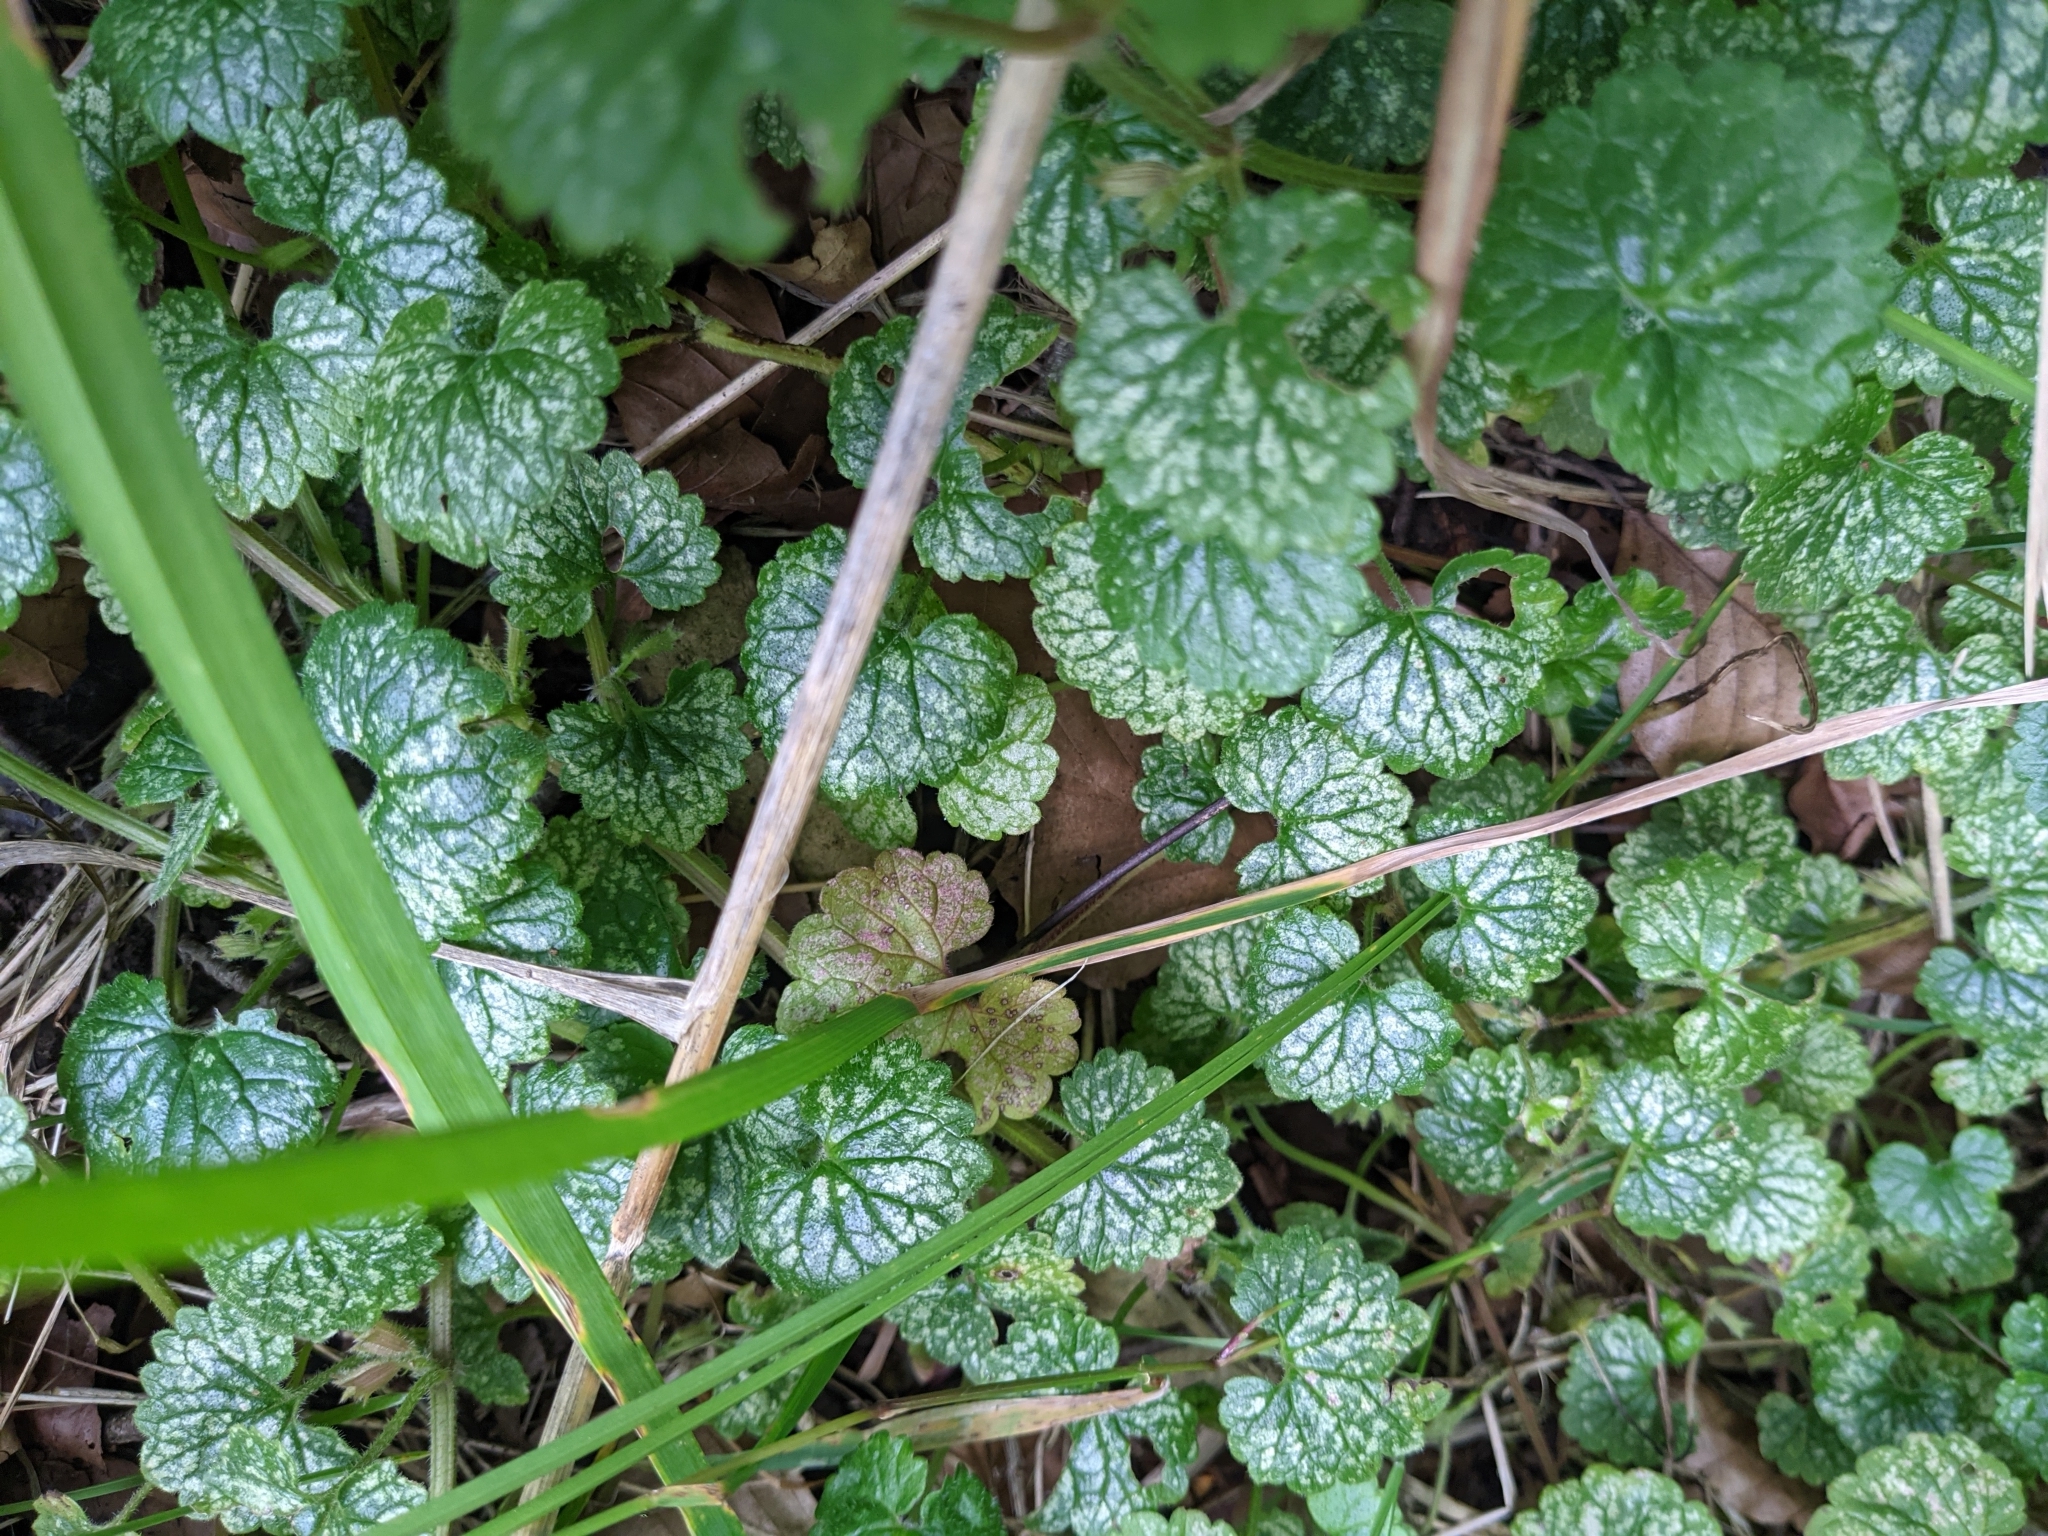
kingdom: Plantae
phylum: Tracheophyta
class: Magnoliopsida
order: Lamiales
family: Lamiaceae
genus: Glechoma
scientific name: Glechoma hederacea
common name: Ground ivy
